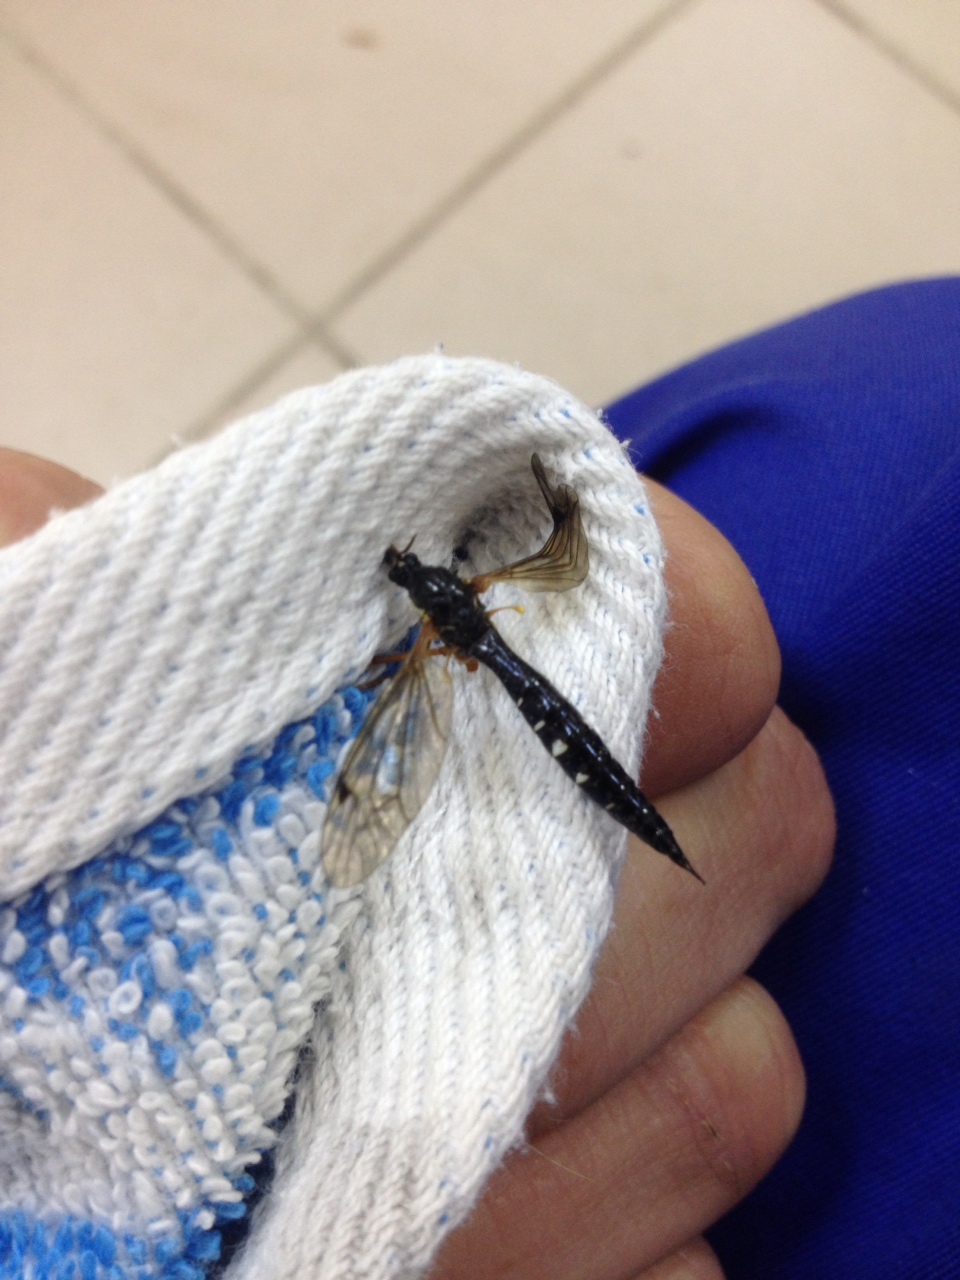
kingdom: Animalia
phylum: Arthropoda
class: Insecta
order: Diptera
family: Tipulidae
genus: Ctenophora
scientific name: Ctenophora guttata
